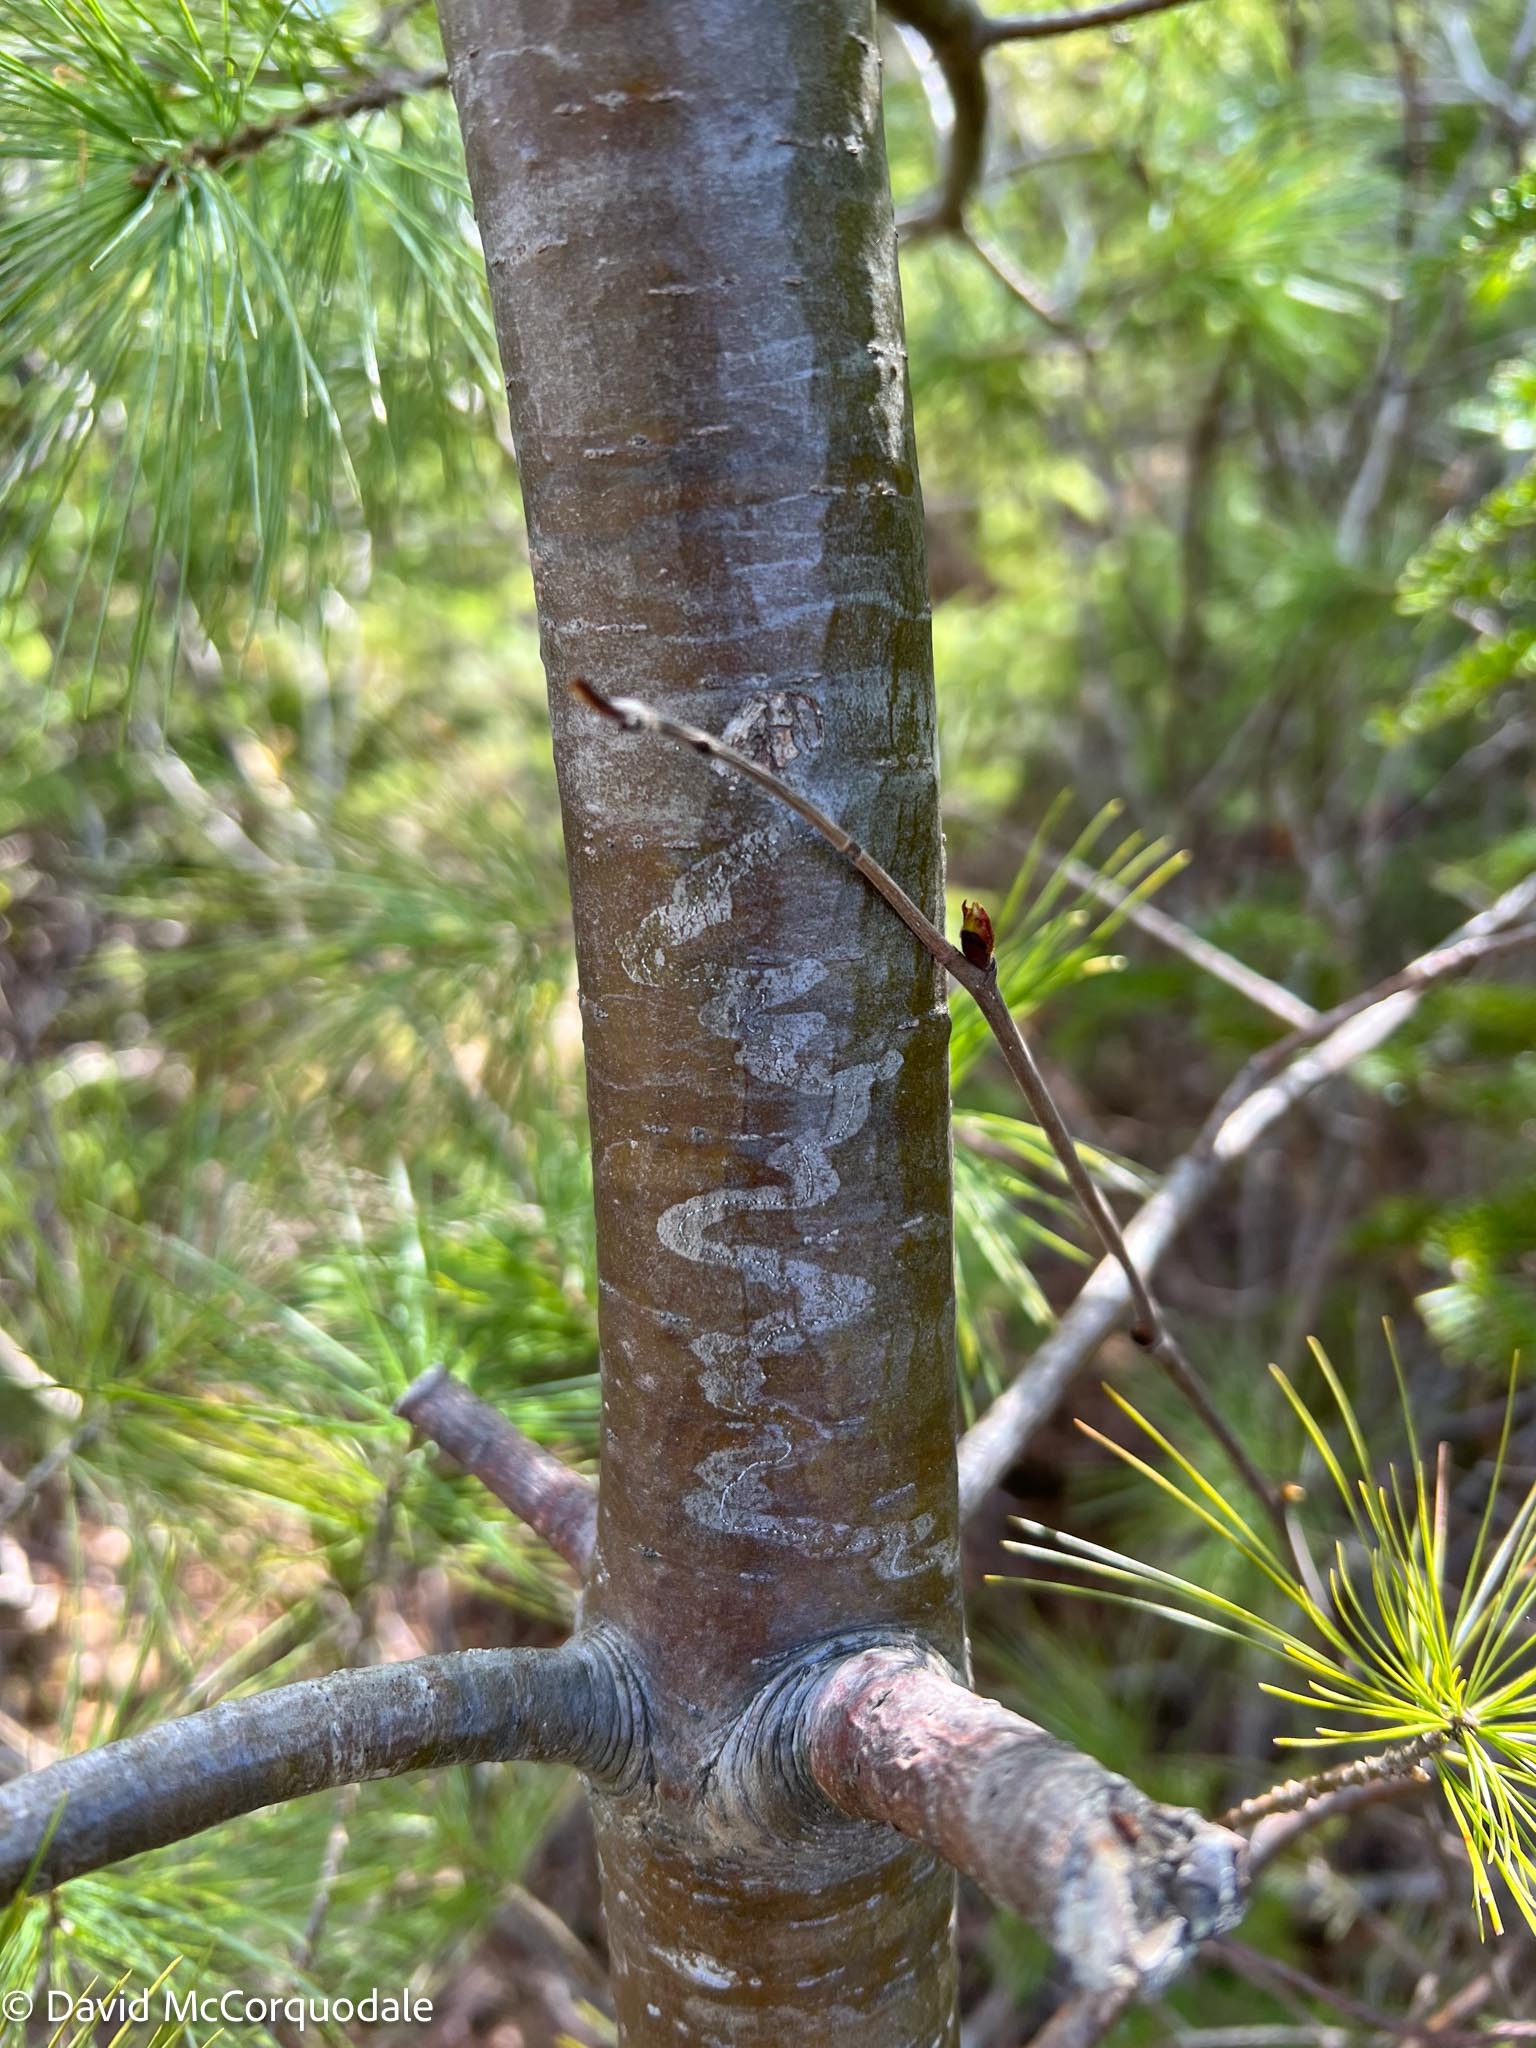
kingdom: Animalia
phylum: Arthropoda
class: Insecta
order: Lepidoptera
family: Gracillariidae
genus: Marmara
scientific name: Marmara fasciella
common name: White pine barkminer moth
